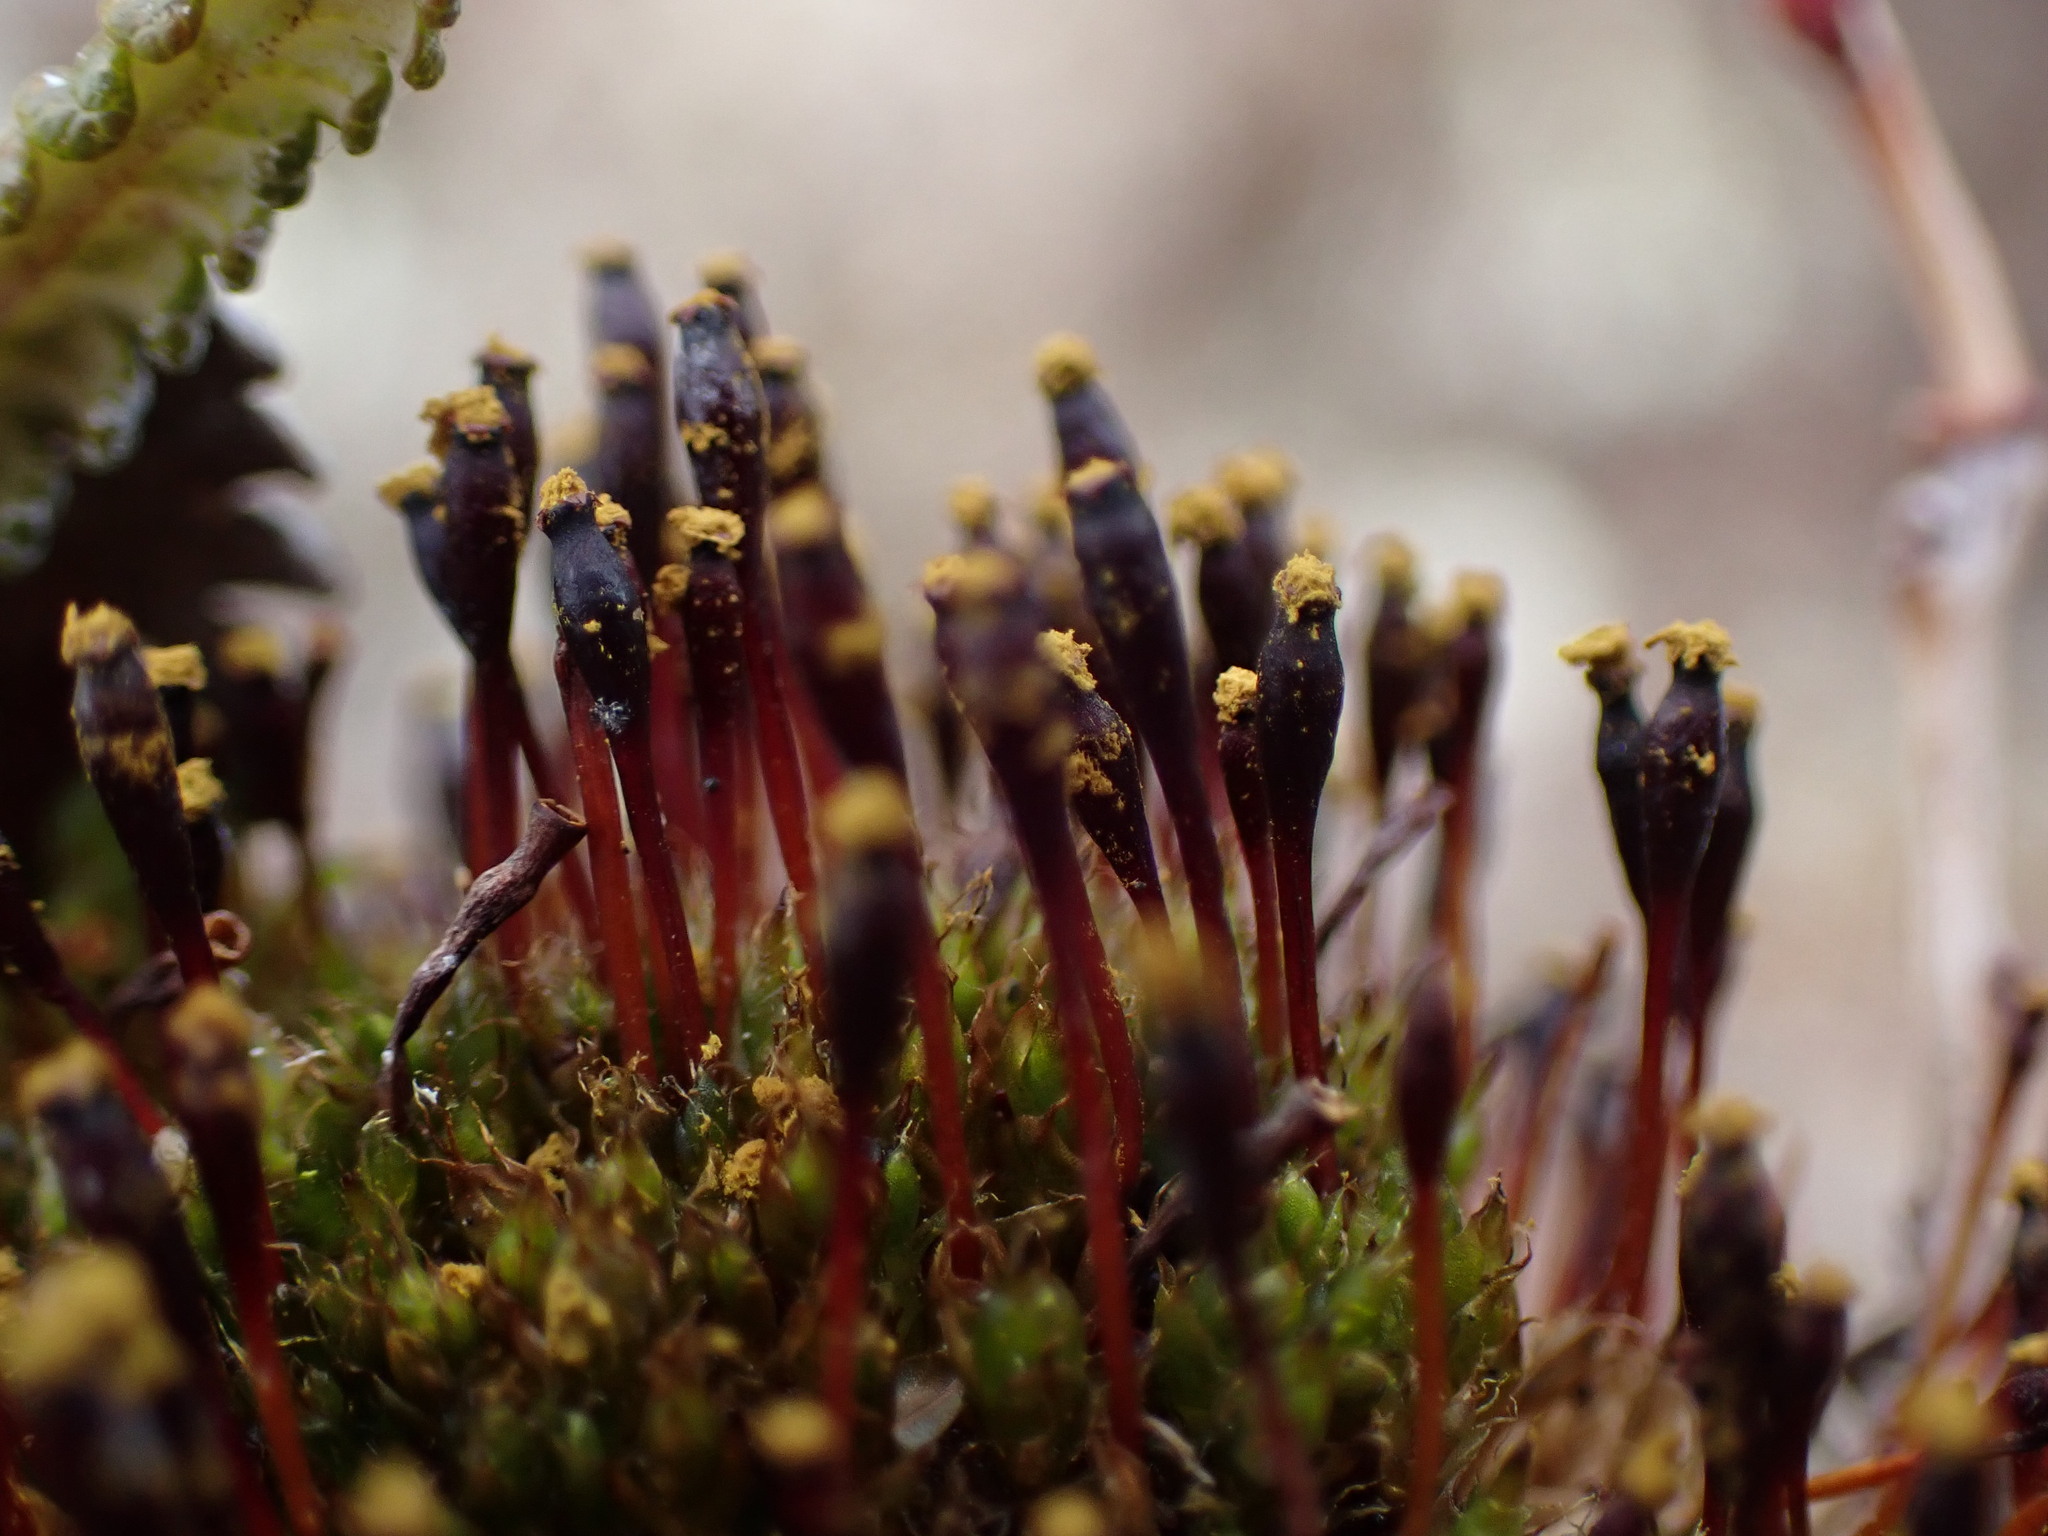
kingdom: Plantae
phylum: Bryophyta
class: Bryopsida
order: Splachnales
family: Splachnaceae
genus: Tetraplodon
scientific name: Tetraplodon mnioides
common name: Entire-leaved nitrogen moss
